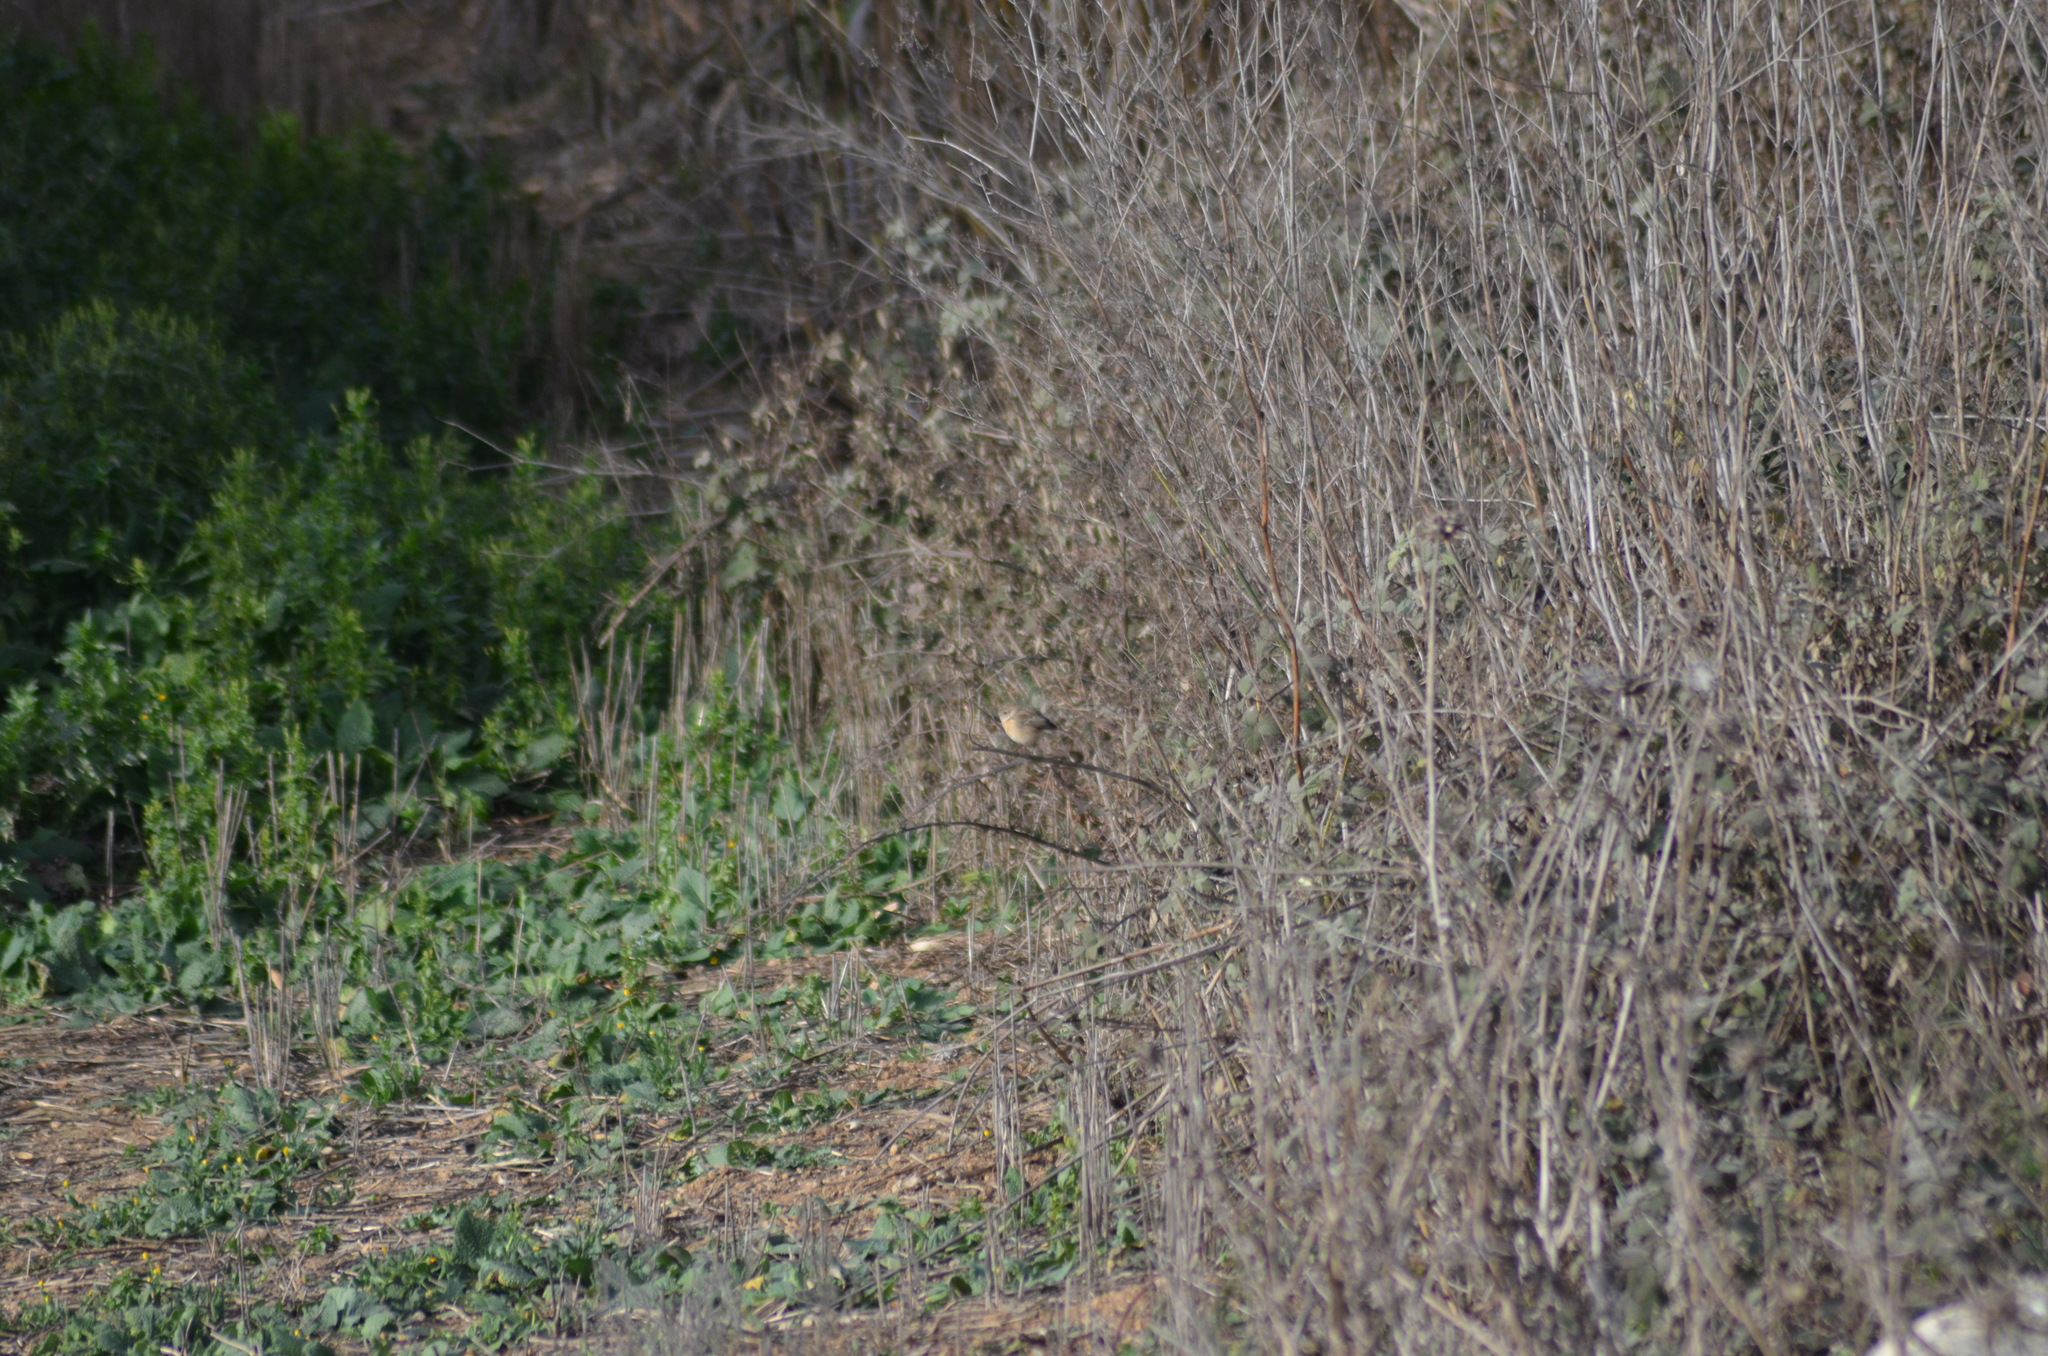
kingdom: Animalia
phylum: Chordata
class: Aves
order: Passeriformes
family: Muscicapidae
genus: Saxicola
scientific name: Saxicola rubicola
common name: European stonechat
